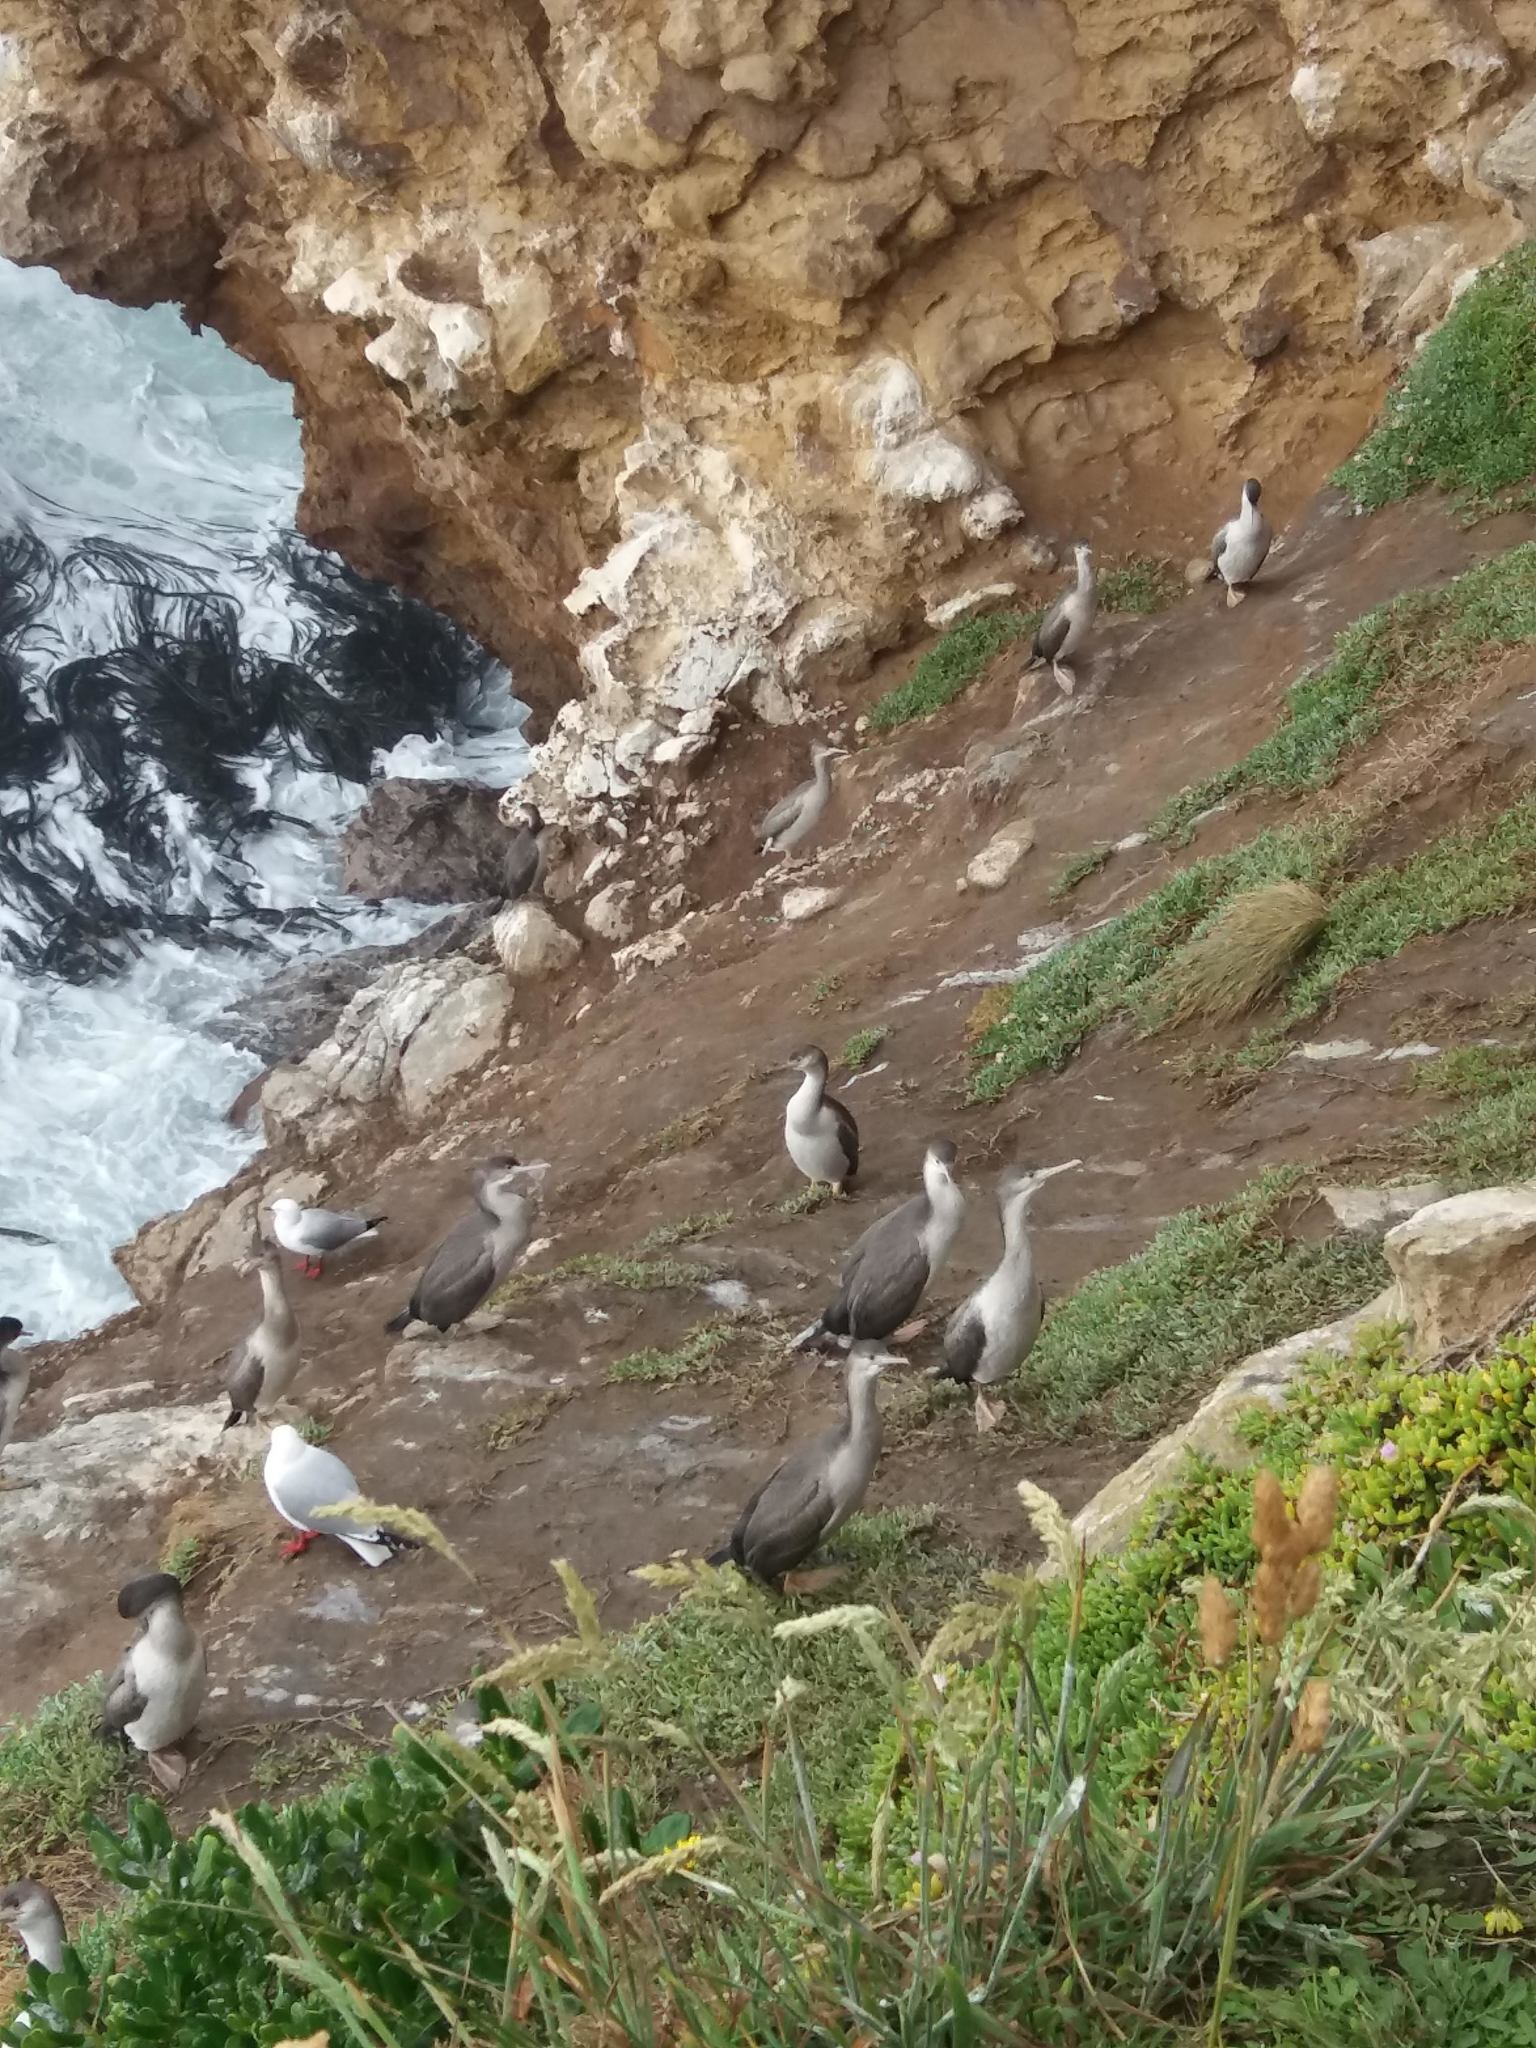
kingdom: Animalia
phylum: Chordata
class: Aves
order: Suliformes
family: Phalacrocoracidae
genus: Phalacrocorax
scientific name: Phalacrocorax punctatus
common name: Spotted shag
